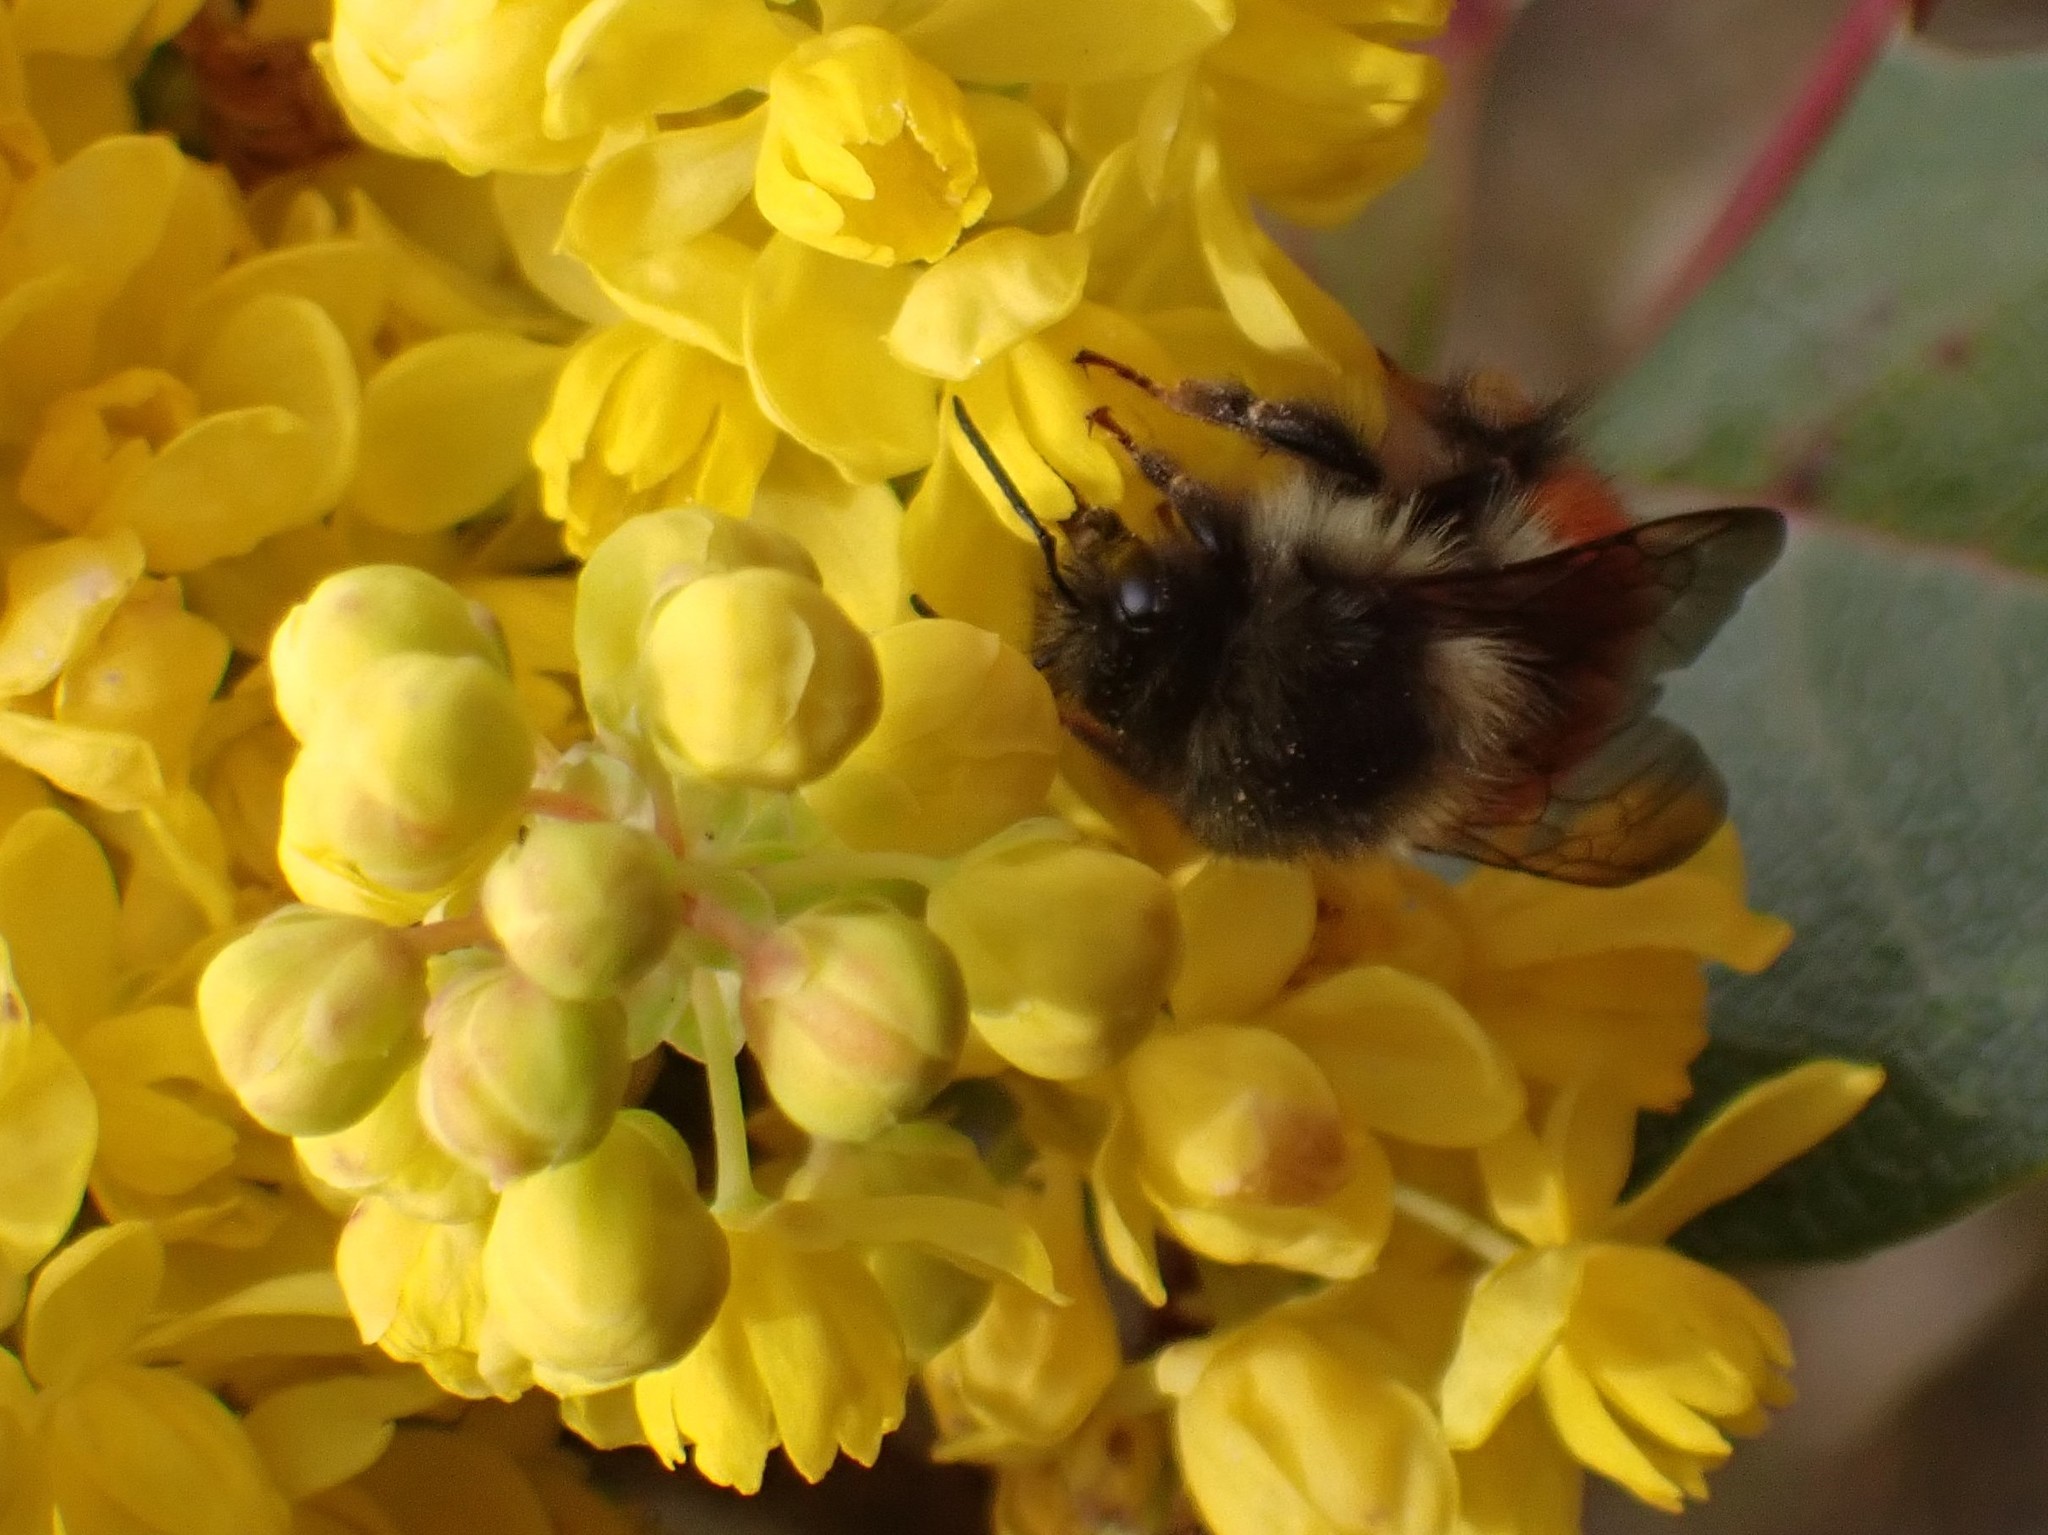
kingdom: Animalia
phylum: Arthropoda
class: Insecta
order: Hymenoptera
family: Apidae
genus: Bombus
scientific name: Bombus melanopygus
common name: Black tail bumble bee
